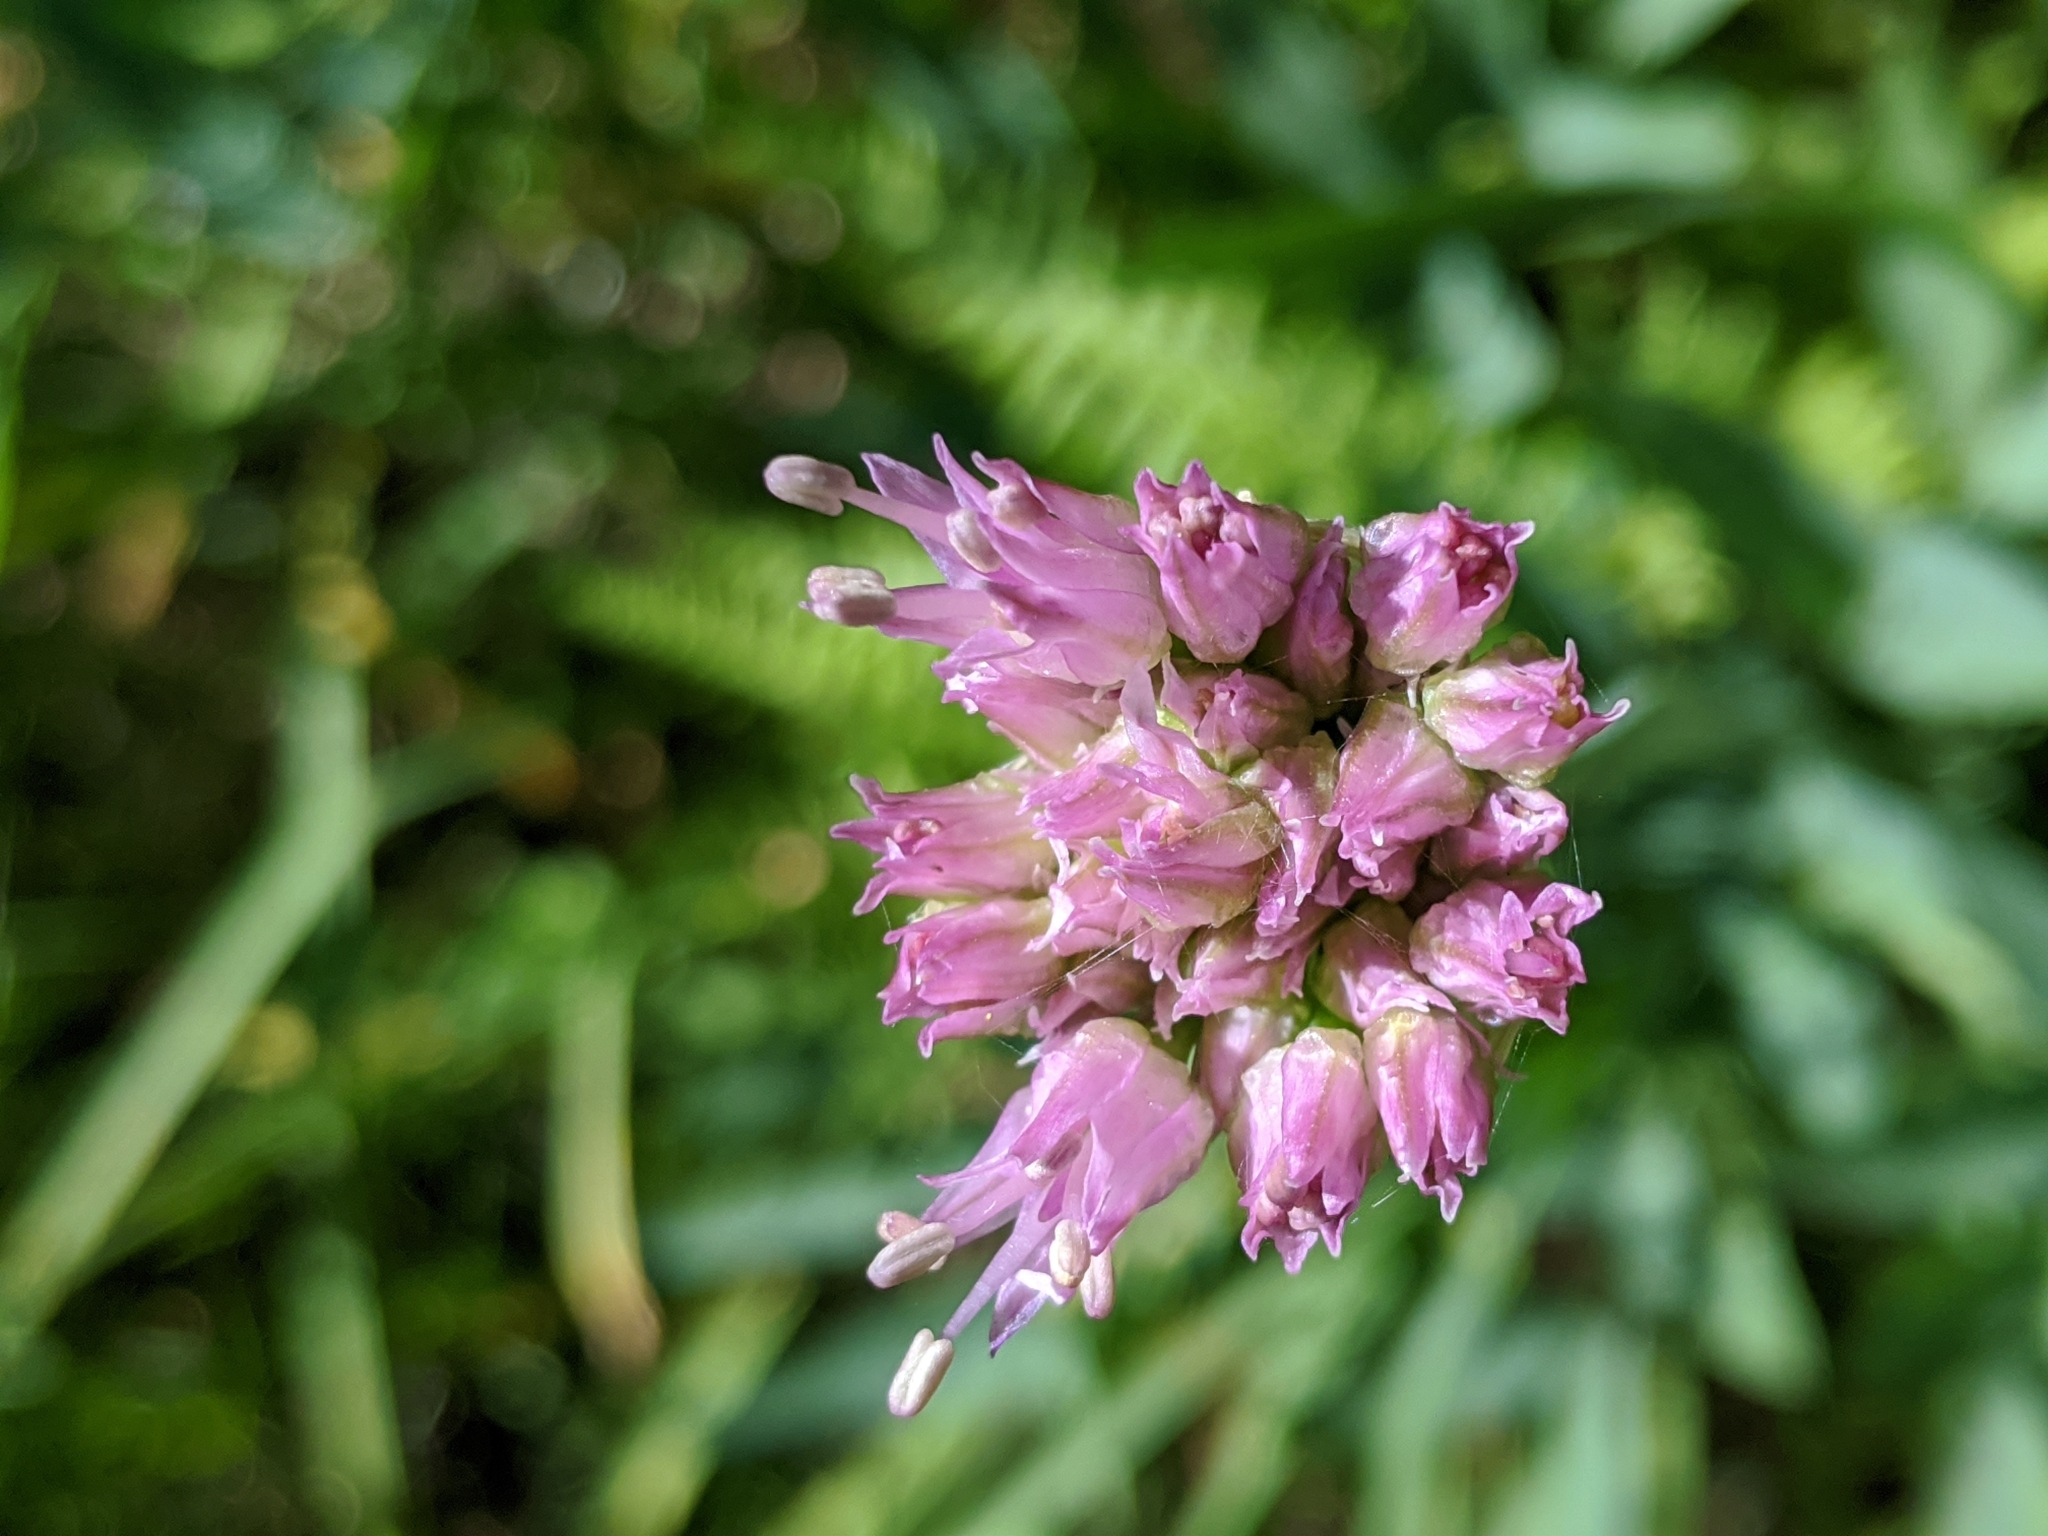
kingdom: Plantae
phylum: Tracheophyta
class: Liliopsida
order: Asparagales
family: Amaryllidaceae
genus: Allium
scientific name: Allium validum
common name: Pacific mountain onion
